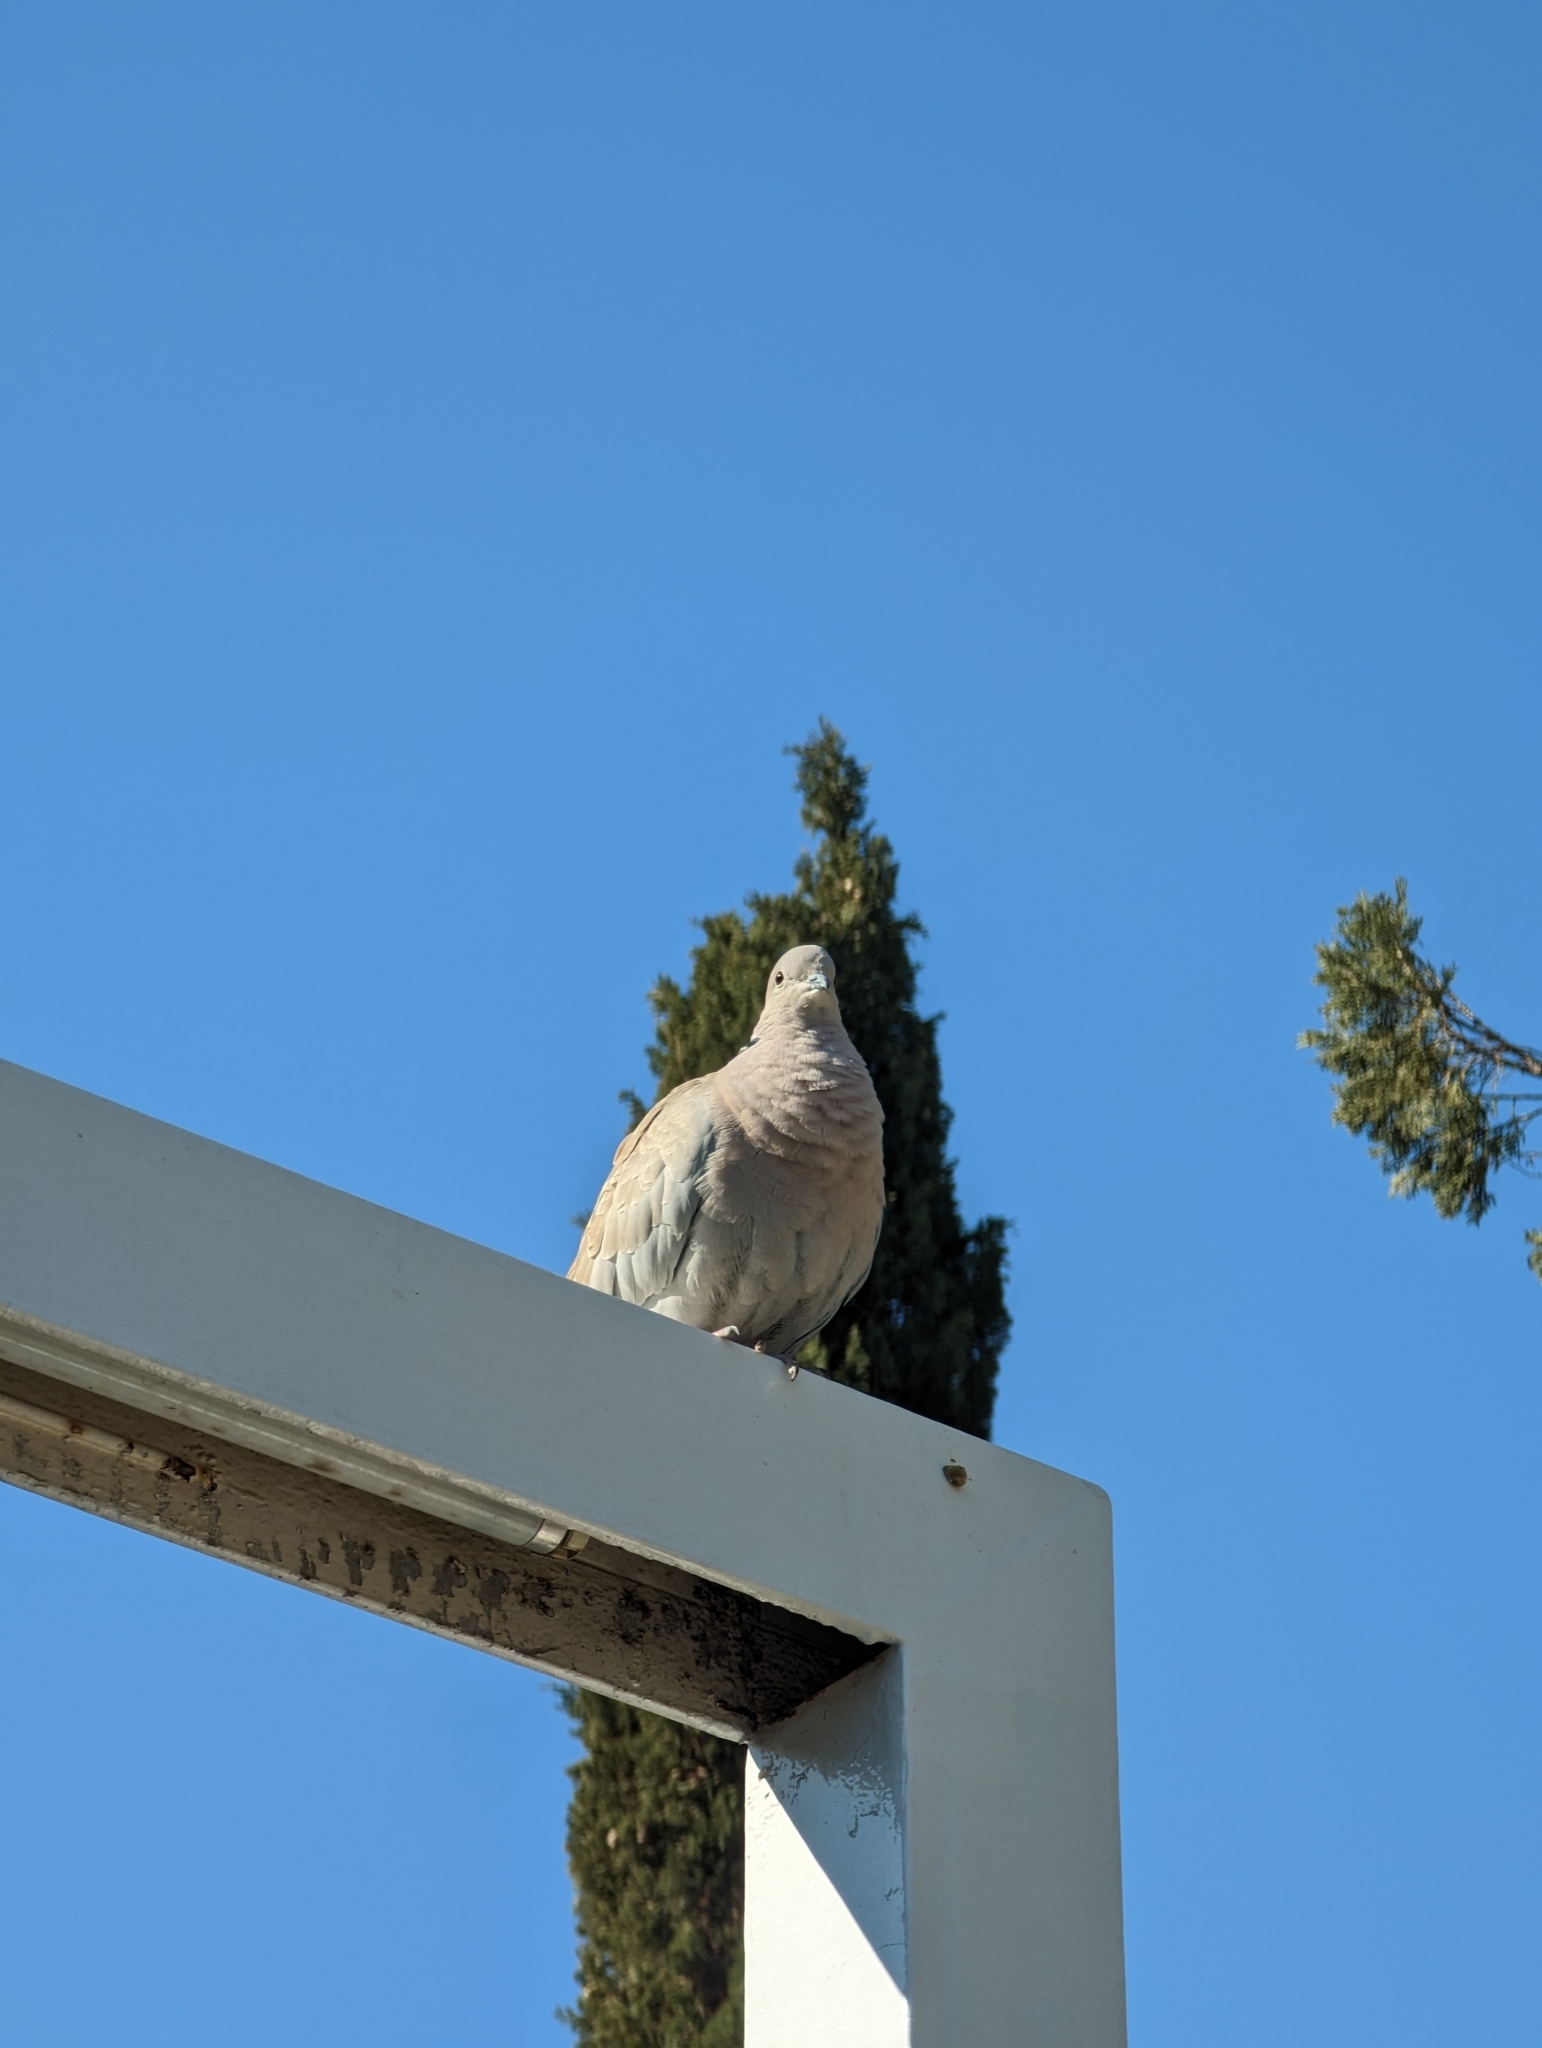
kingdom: Animalia
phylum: Chordata
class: Aves
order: Columbiformes
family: Columbidae
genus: Streptopelia
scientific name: Streptopelia decaocto
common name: Eurasian collared dove
